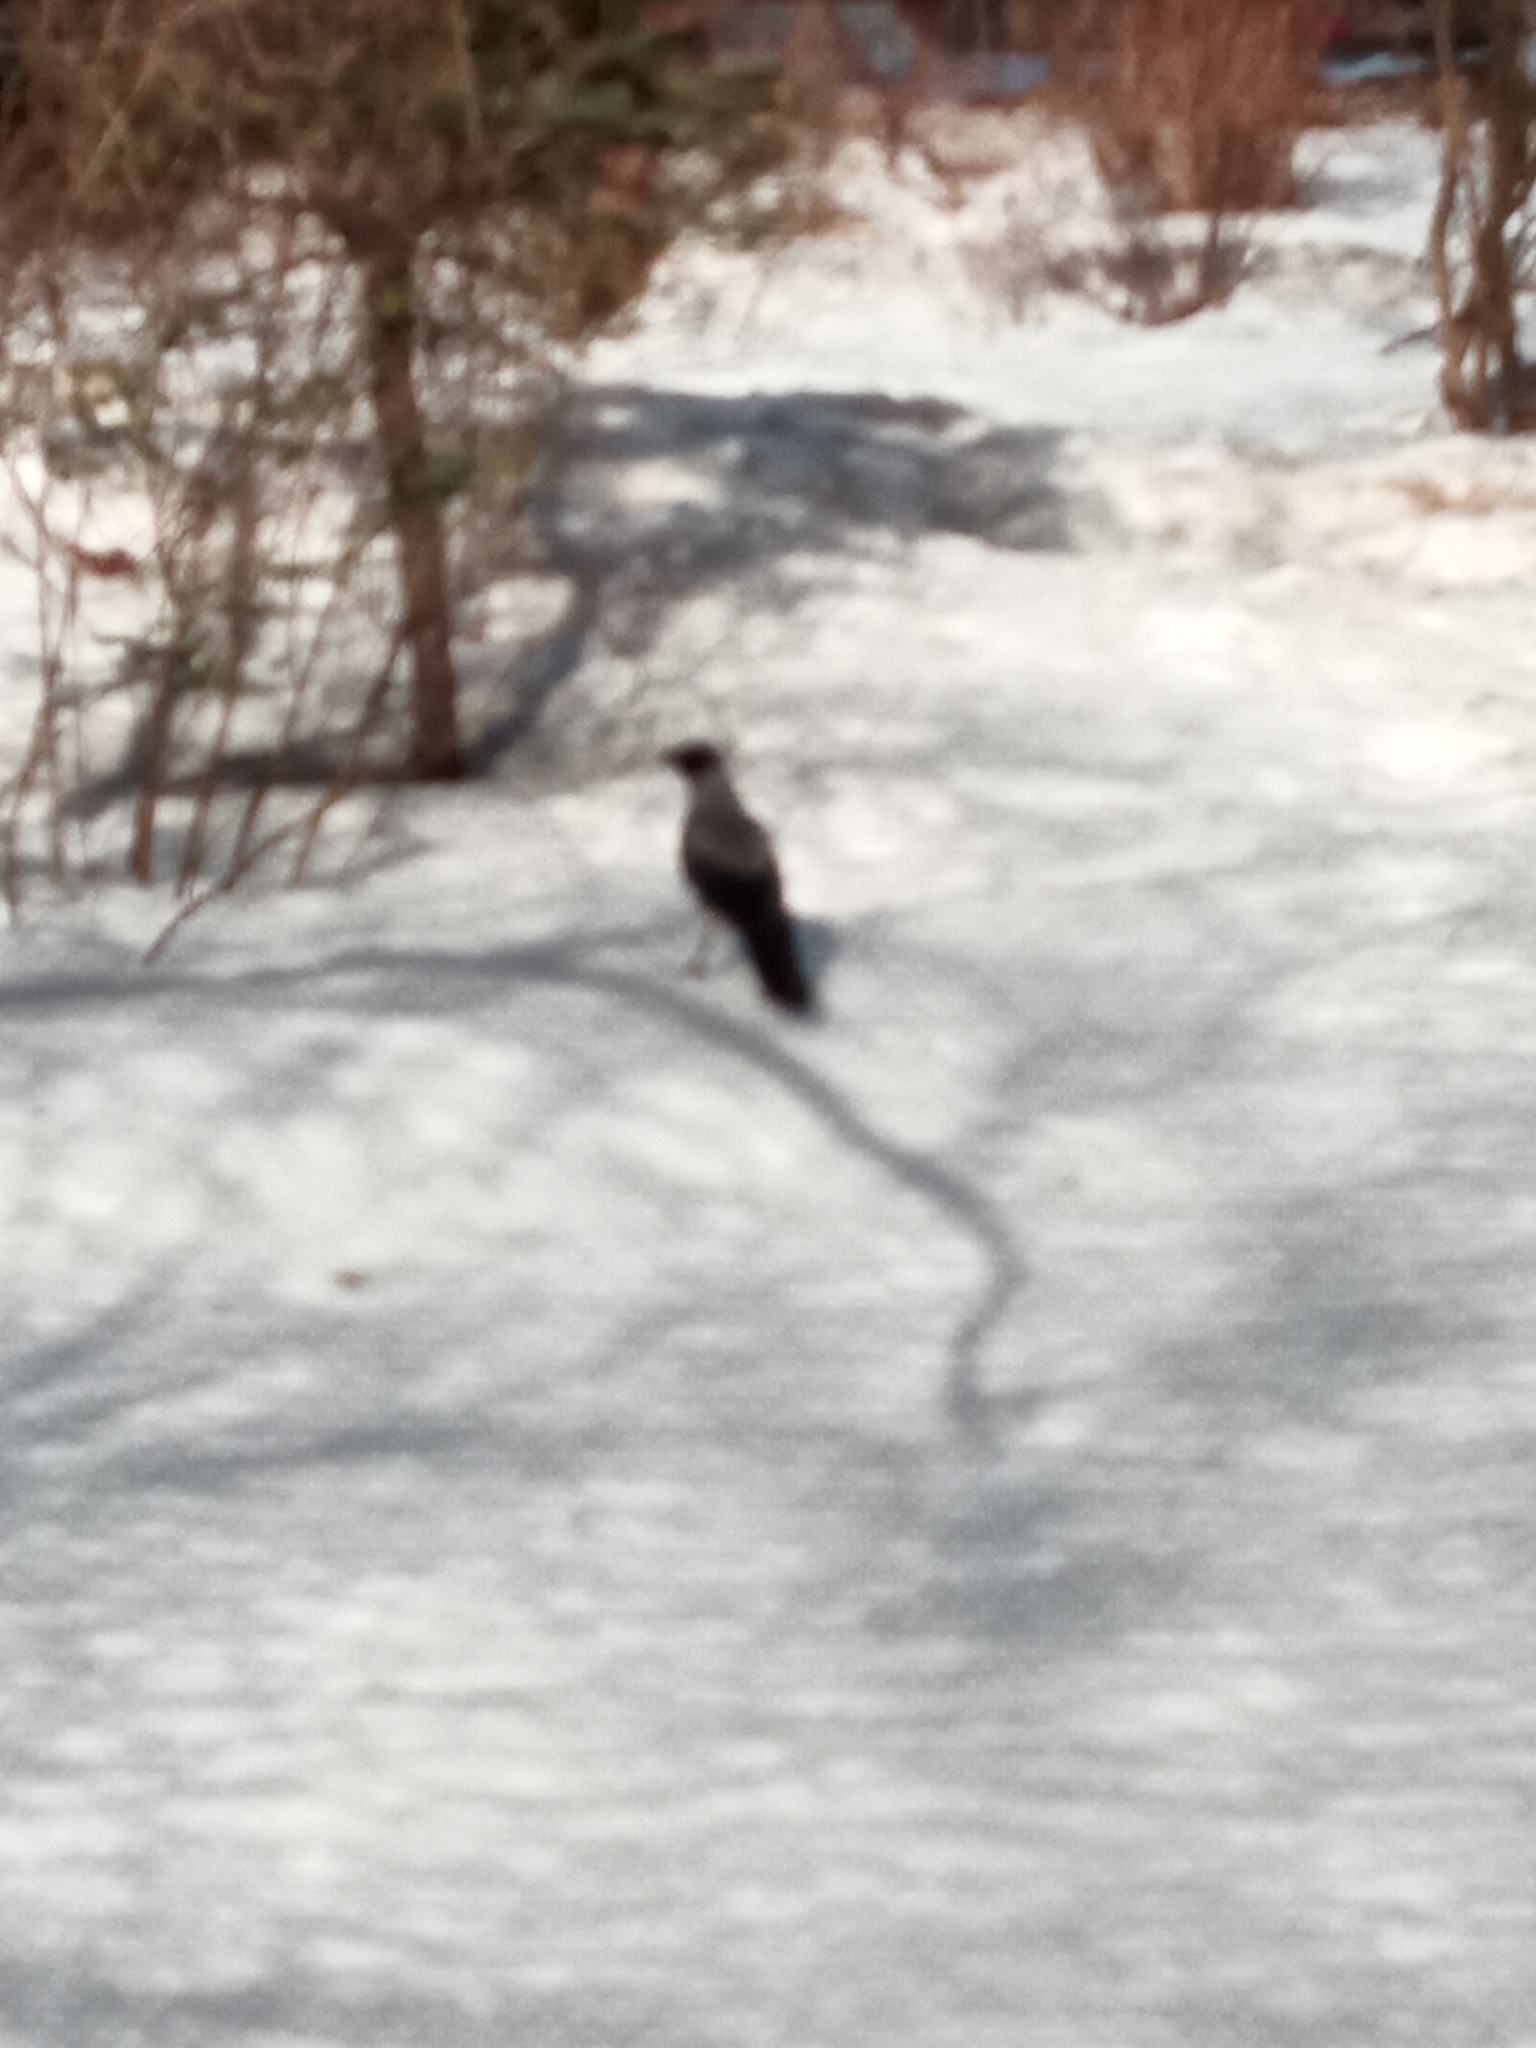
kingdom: Animalia
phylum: Chordata
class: Aves
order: Passeriformes
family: Corvidae
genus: Corvus
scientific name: Corvus cornix
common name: Hooded crow
